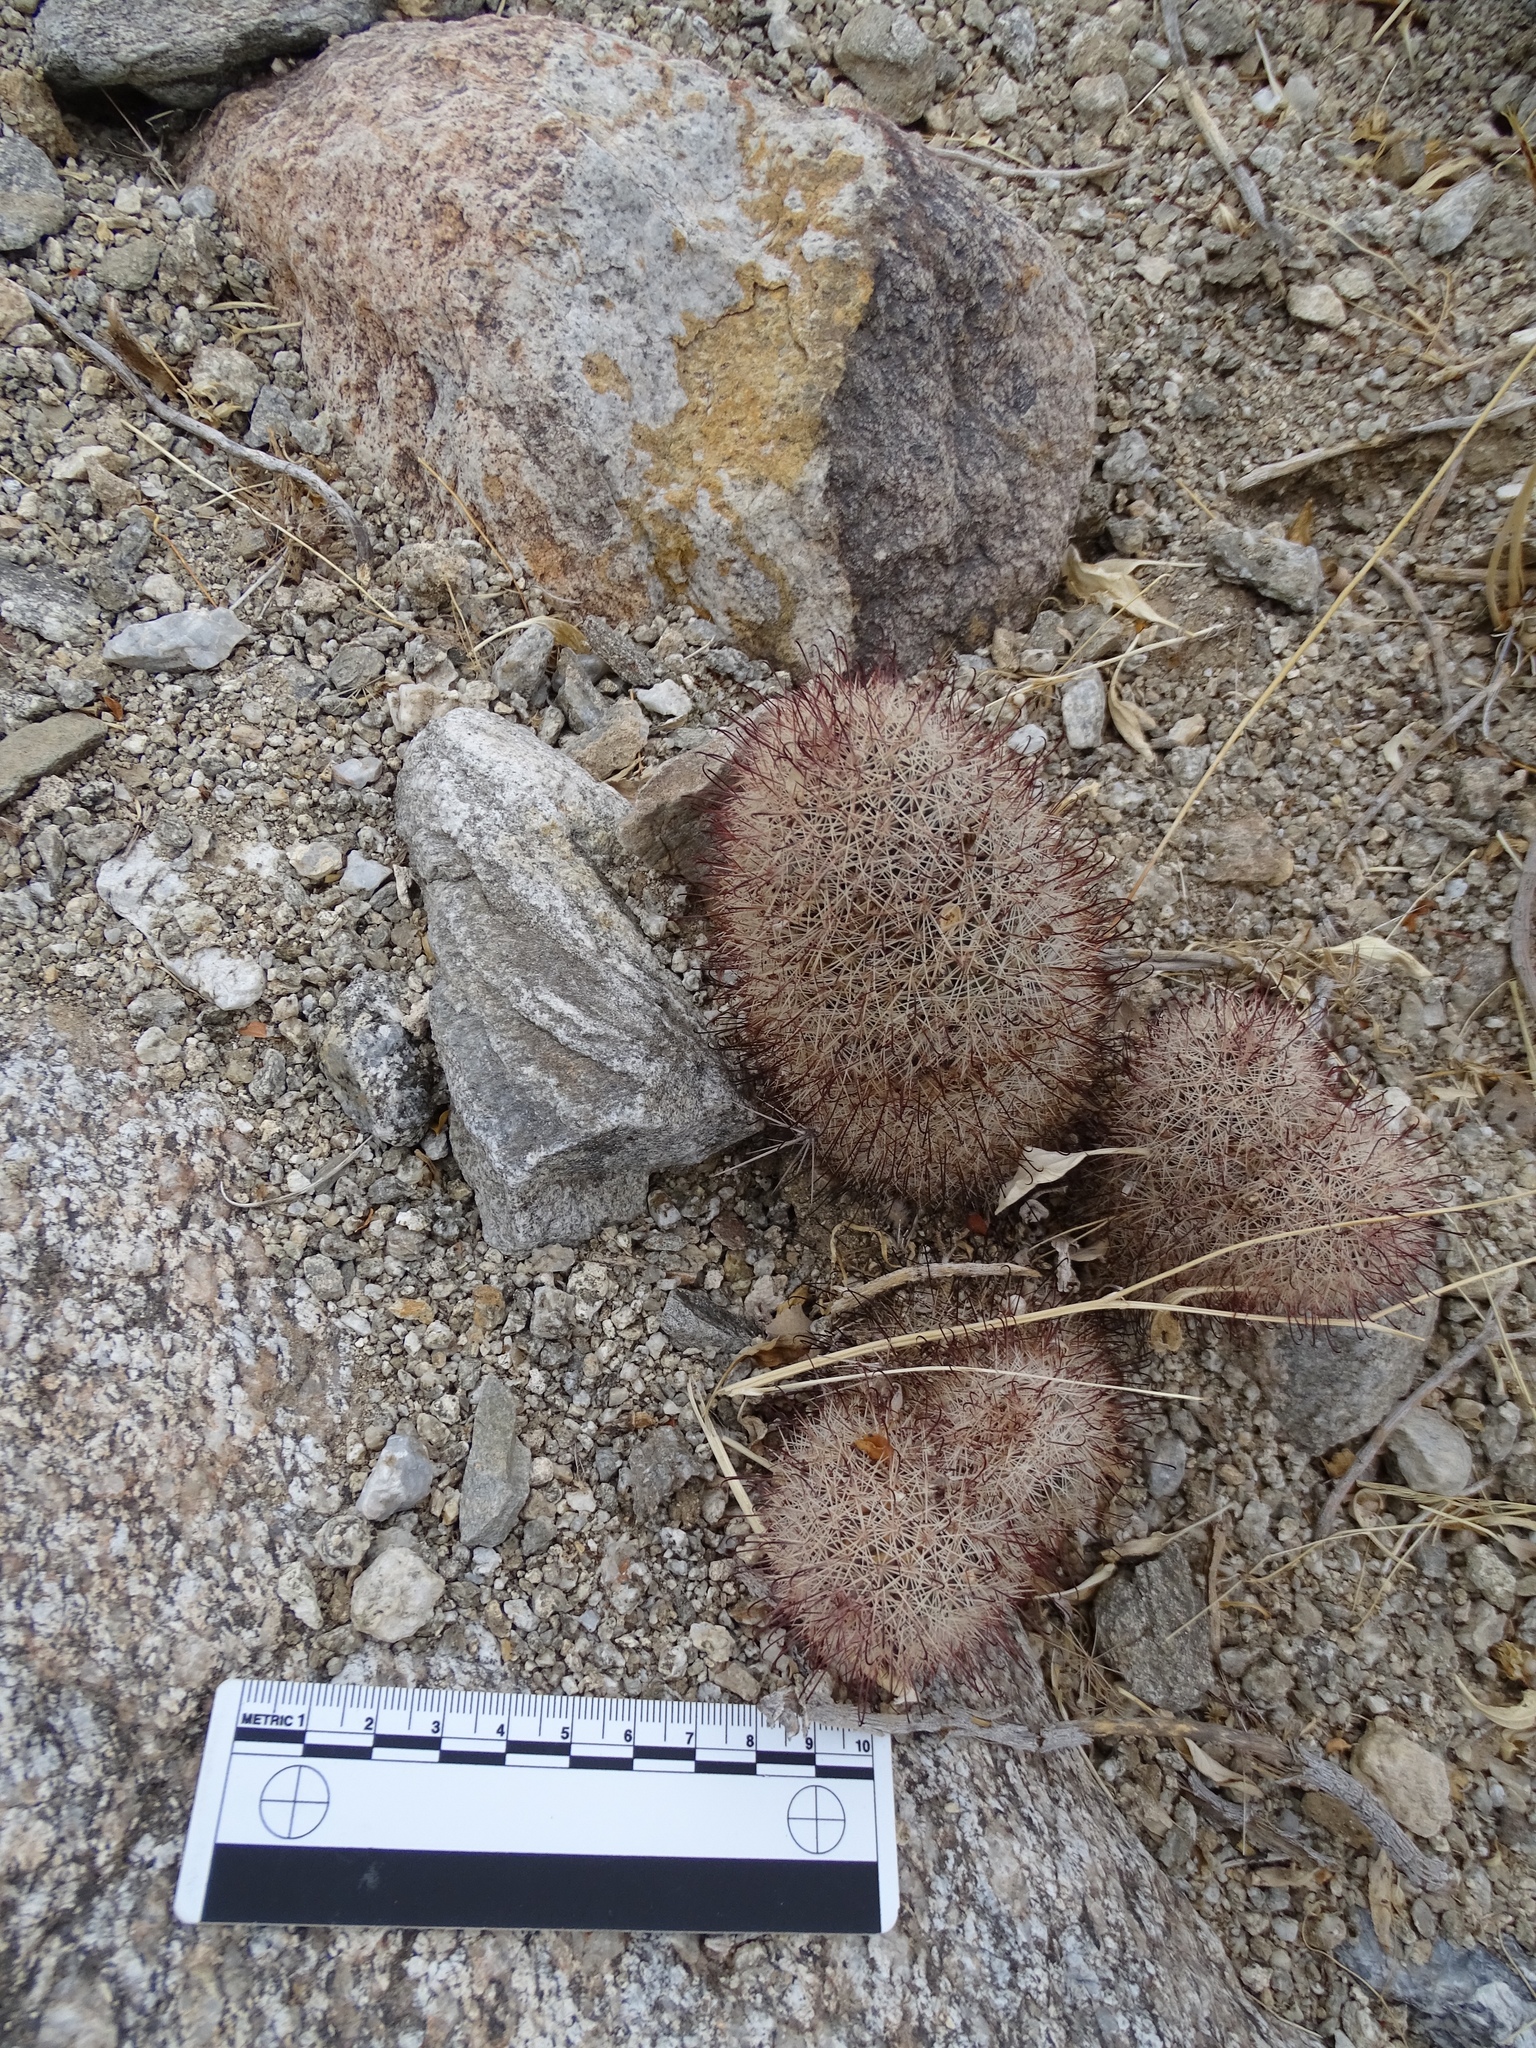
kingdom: Plantae
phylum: Tracheophyta
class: Magnoliopsida
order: Caryophyllales
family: Cactaceae
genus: Cochemiea
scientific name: Cochemiea dioica
